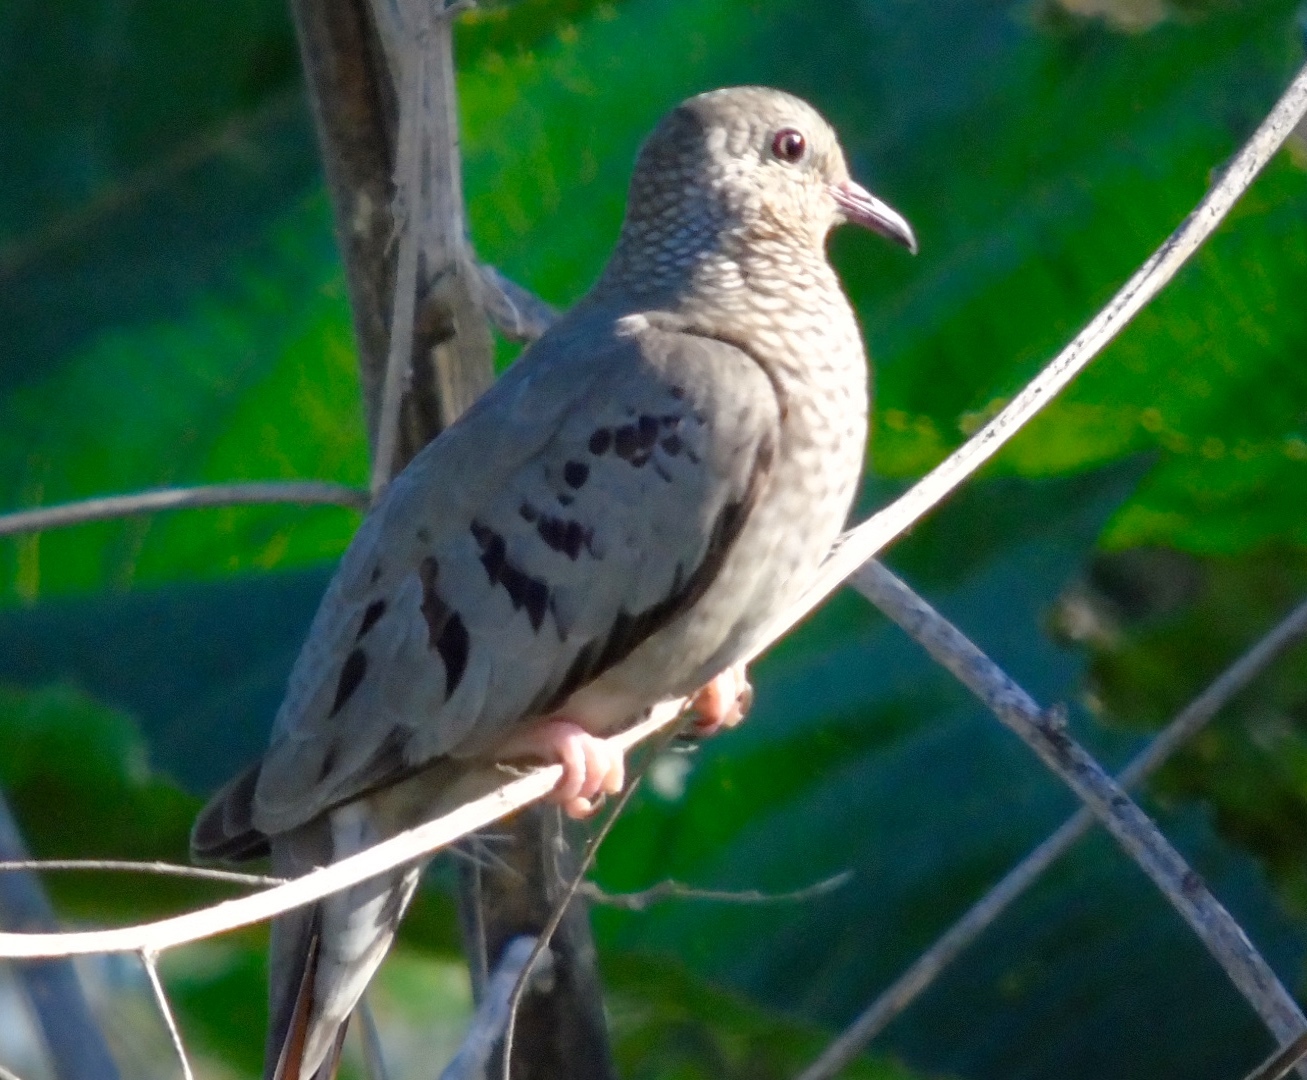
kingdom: Animalia
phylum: Chordata
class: Aves
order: Columbiformes
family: Columbidae
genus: Columbina
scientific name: Columbina passerina
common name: Common ground-dove
